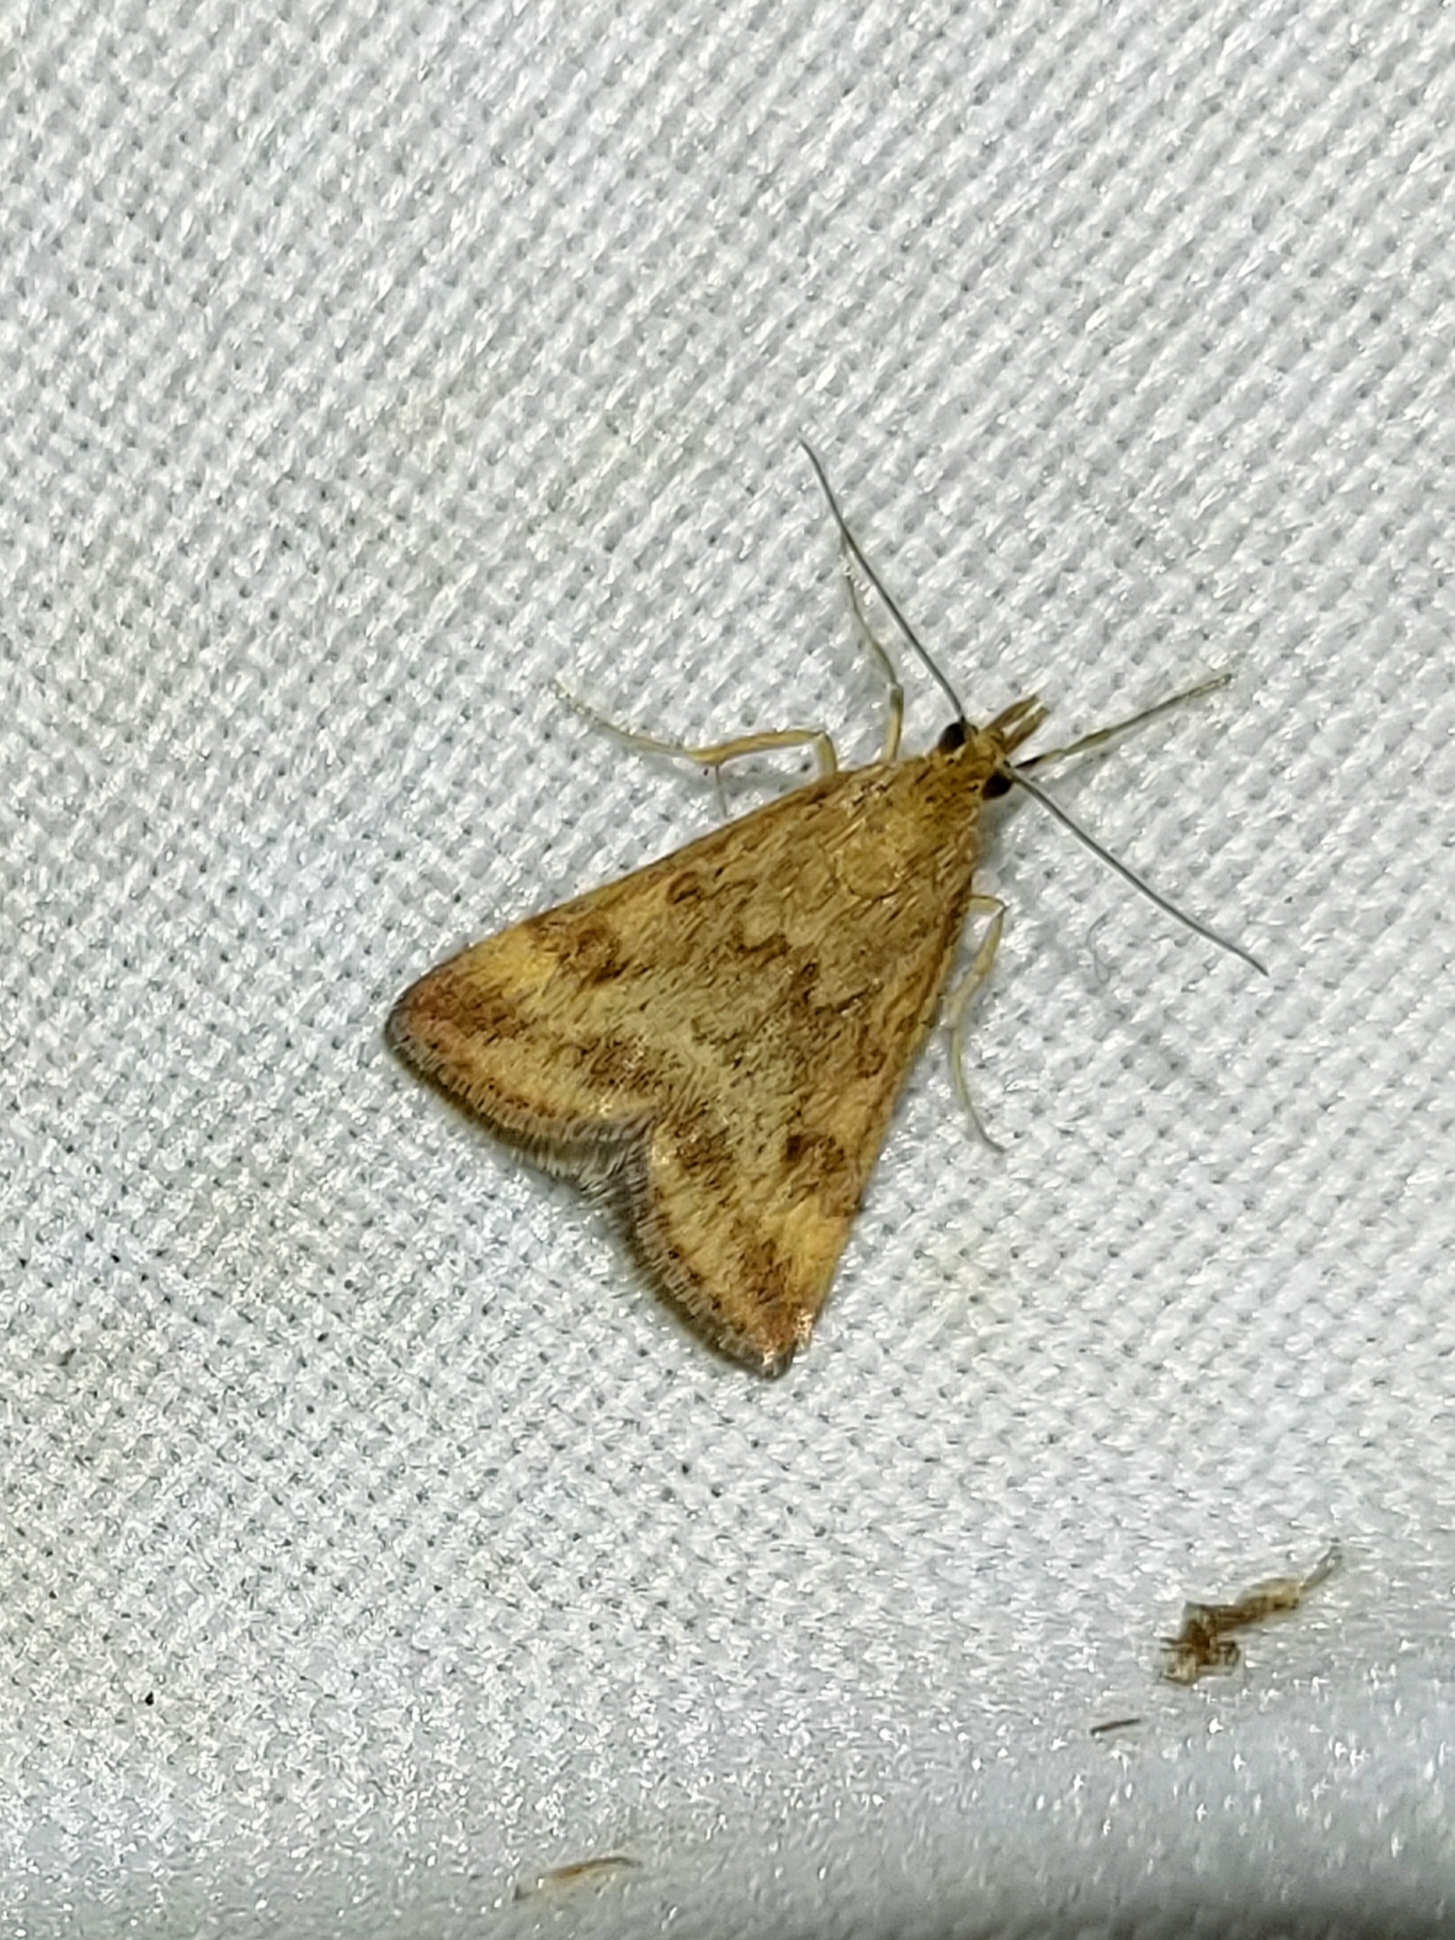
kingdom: Animalia
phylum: Arthropoda
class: Insecta
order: Lepidoptera
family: Crambidae
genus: Pyrausta
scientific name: Pyrausta despicata
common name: Straw-barred pearl
